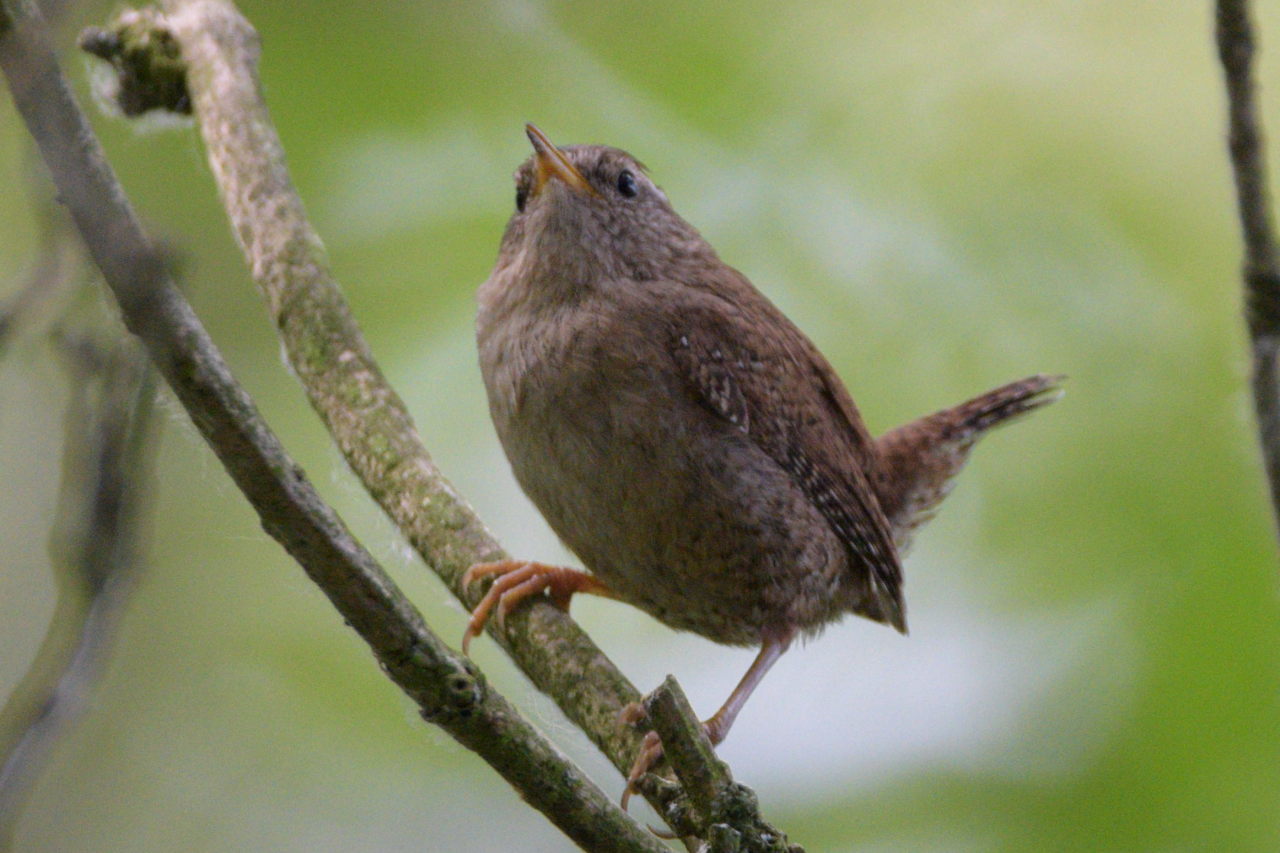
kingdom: Animalia
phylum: Chordata
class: Aves
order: Passeriformes
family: Troglodytidae
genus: Troglodytes
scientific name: Troglodytes troglodytes
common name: Eurasian wren
